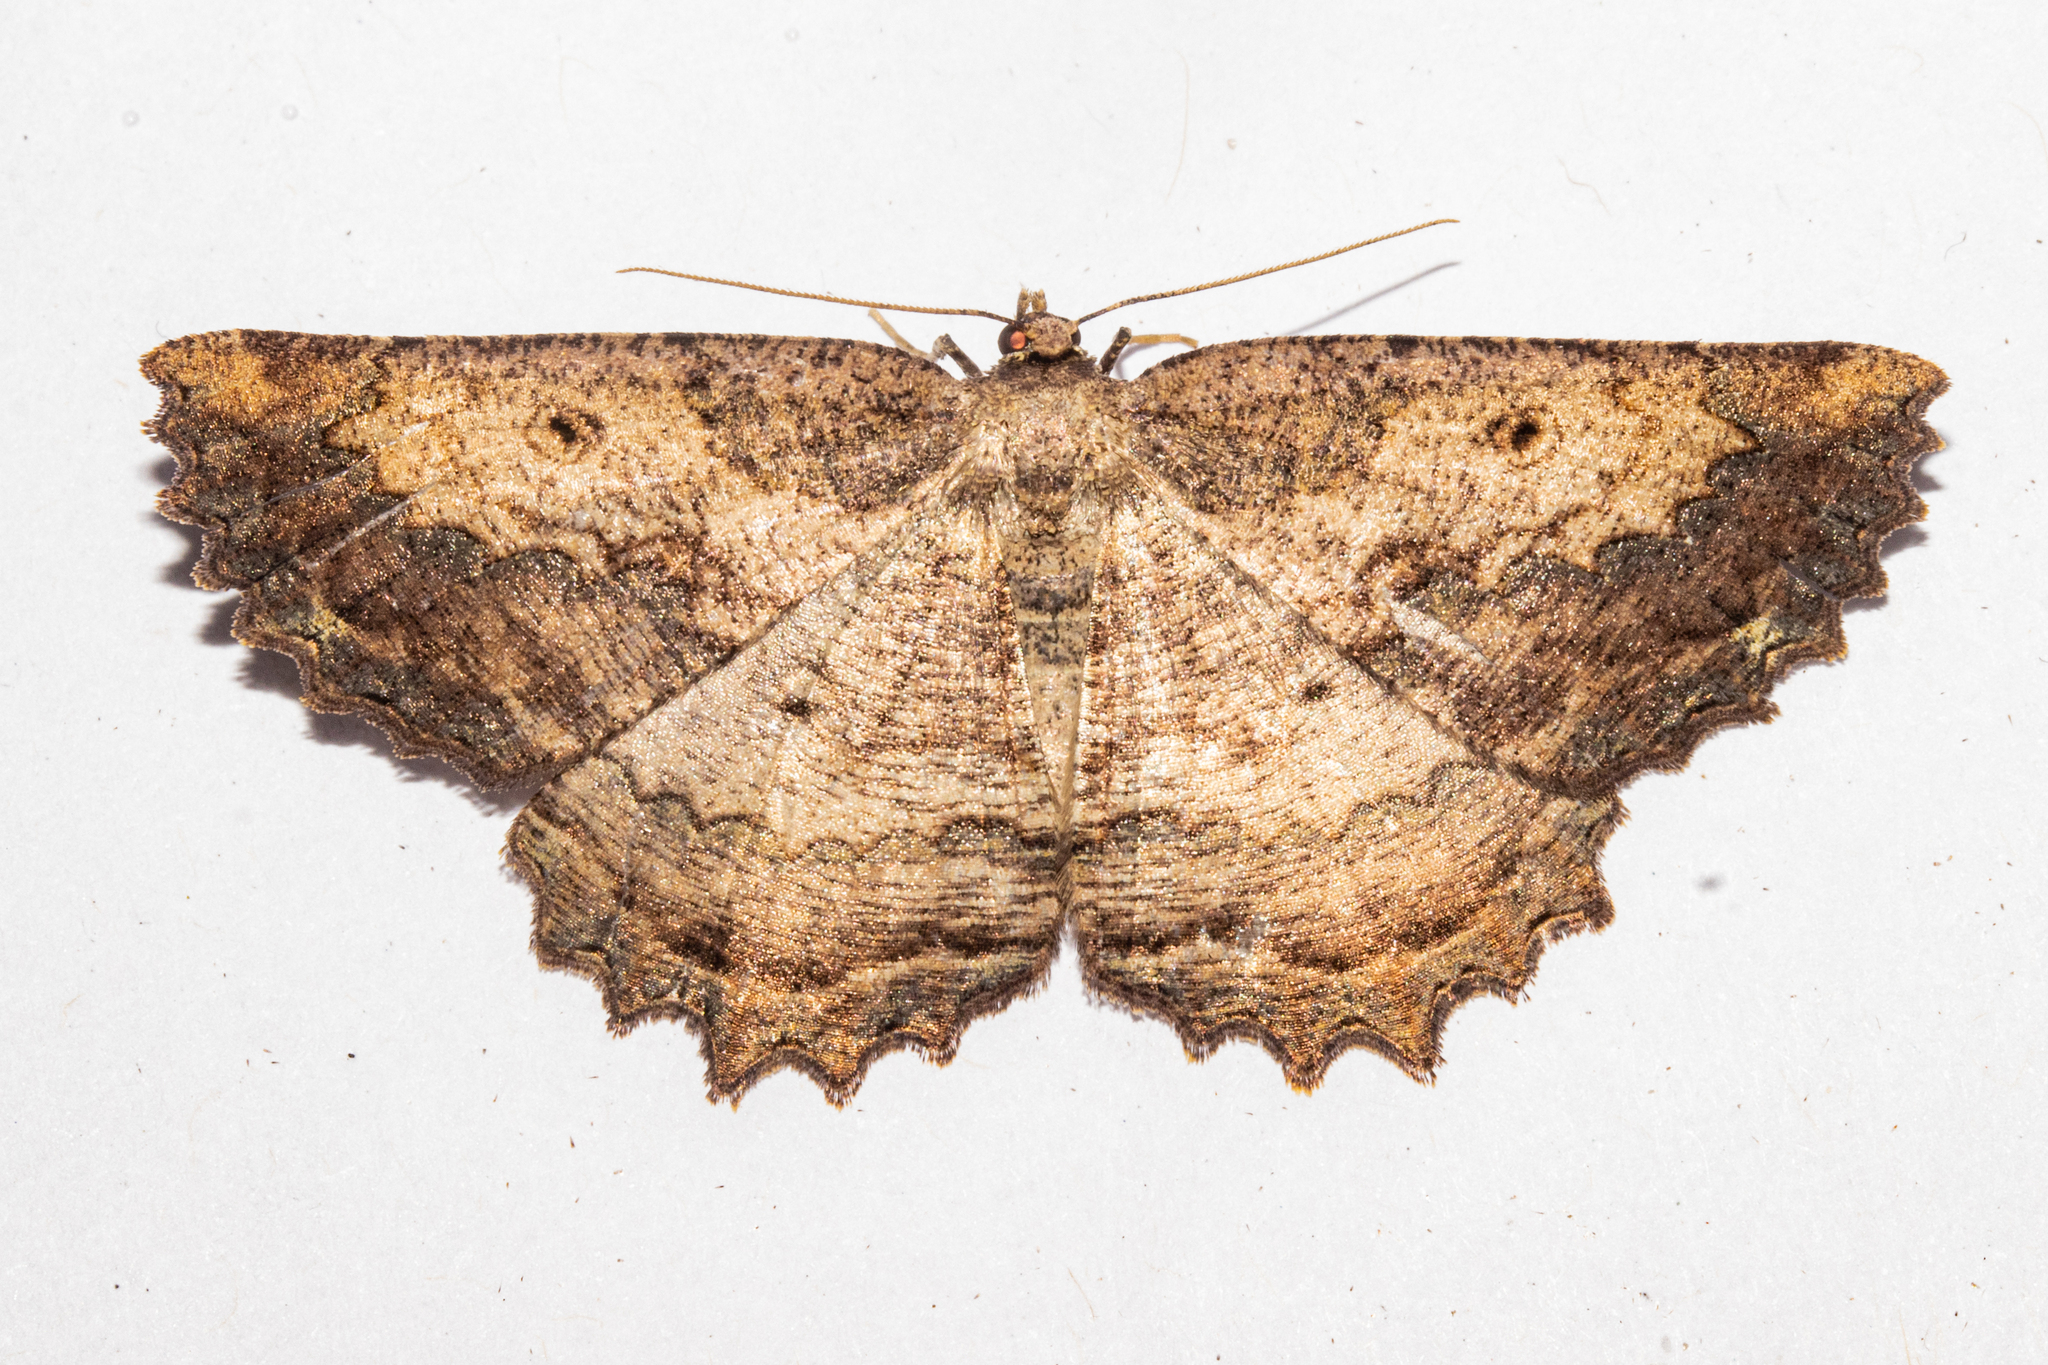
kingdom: Animalia
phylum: Arthropoda
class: Insecta
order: Lepidoptera
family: Geometridae
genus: Gellonia
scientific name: Gellonia pannularia
